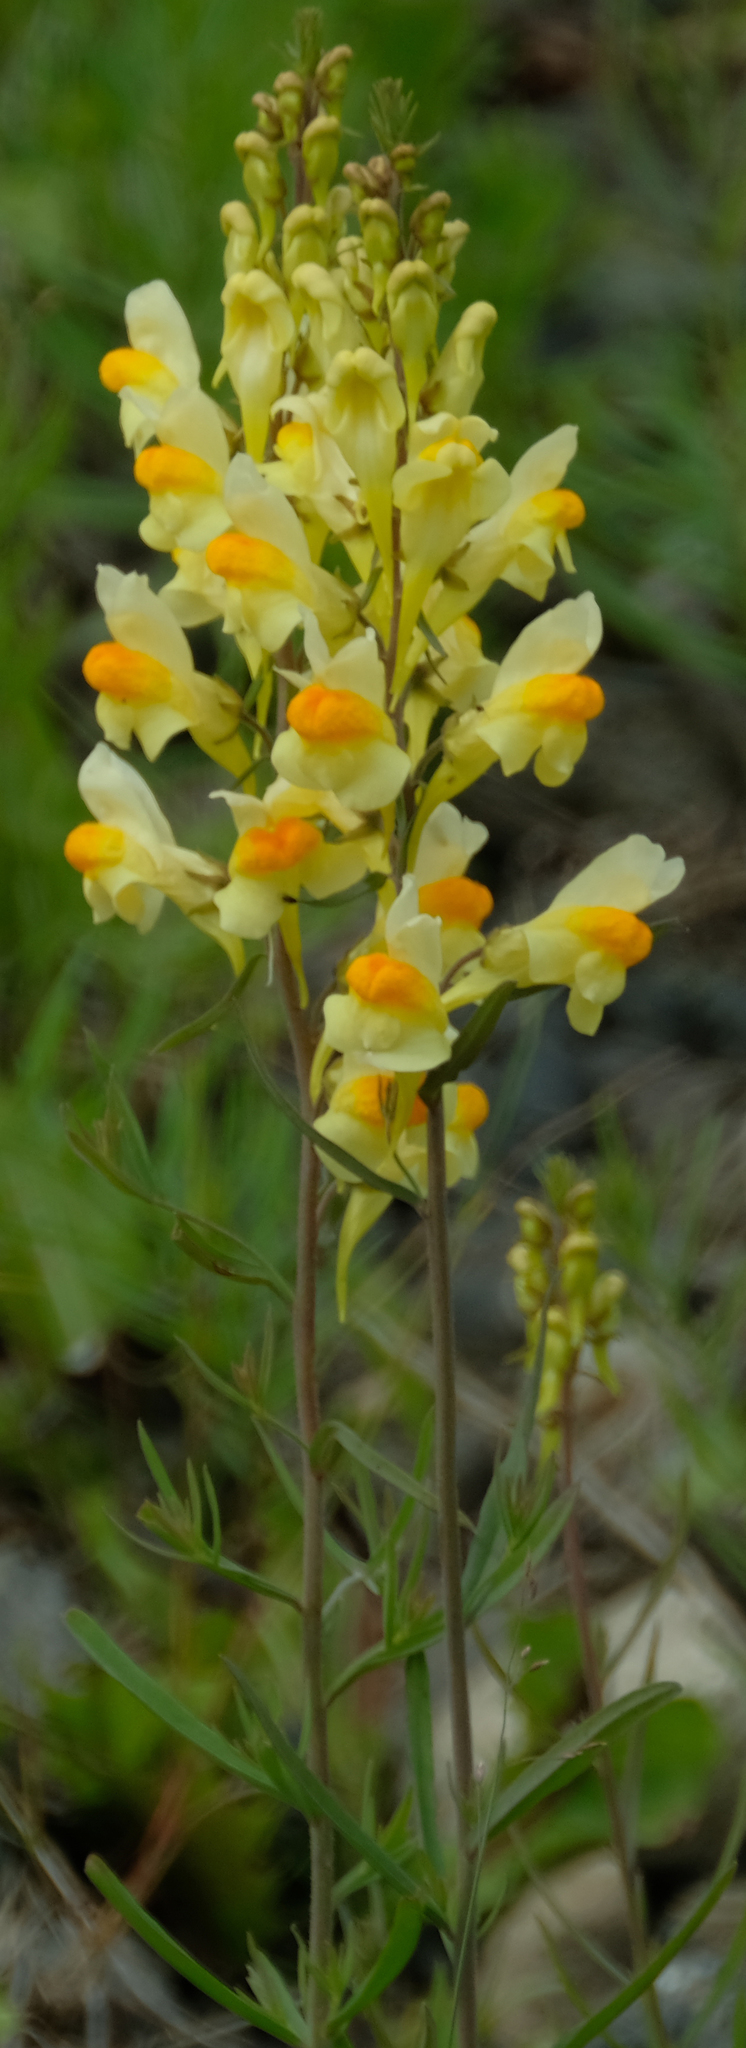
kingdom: Plantae
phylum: Tracheophyta
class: Magnoliopsida
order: Lamiales
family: Plantaginaceae
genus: Linaria
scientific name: Linaria vulgaris
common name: Butter and eggs
